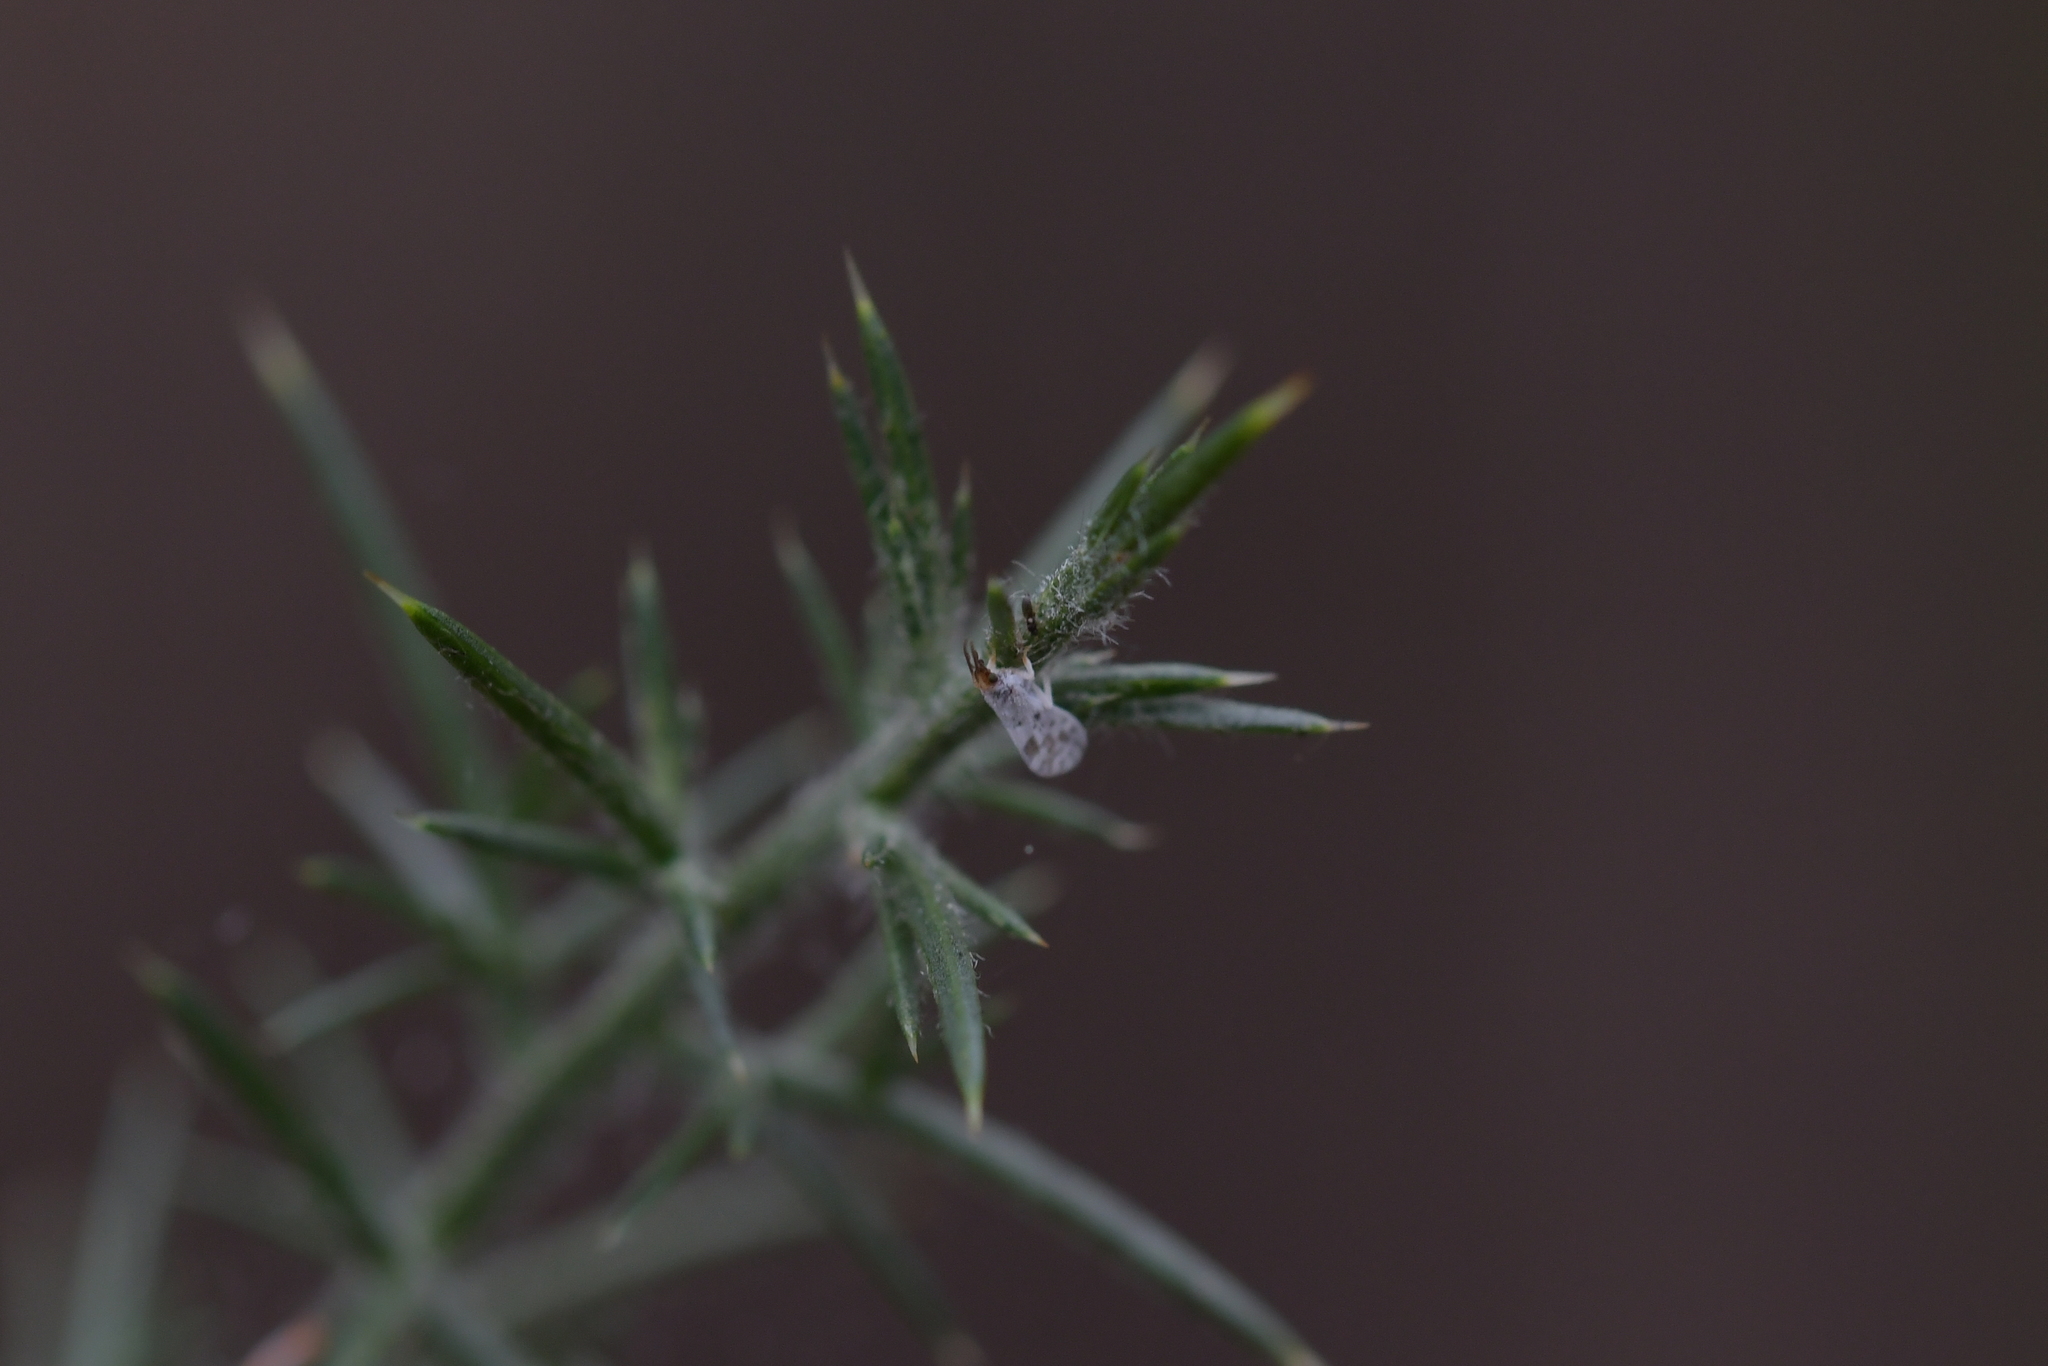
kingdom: Animalia
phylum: Arthropoda
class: Insecta
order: Neuroptera
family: Coniopterygidae
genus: Heteroconis
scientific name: Heteroconis ornata
